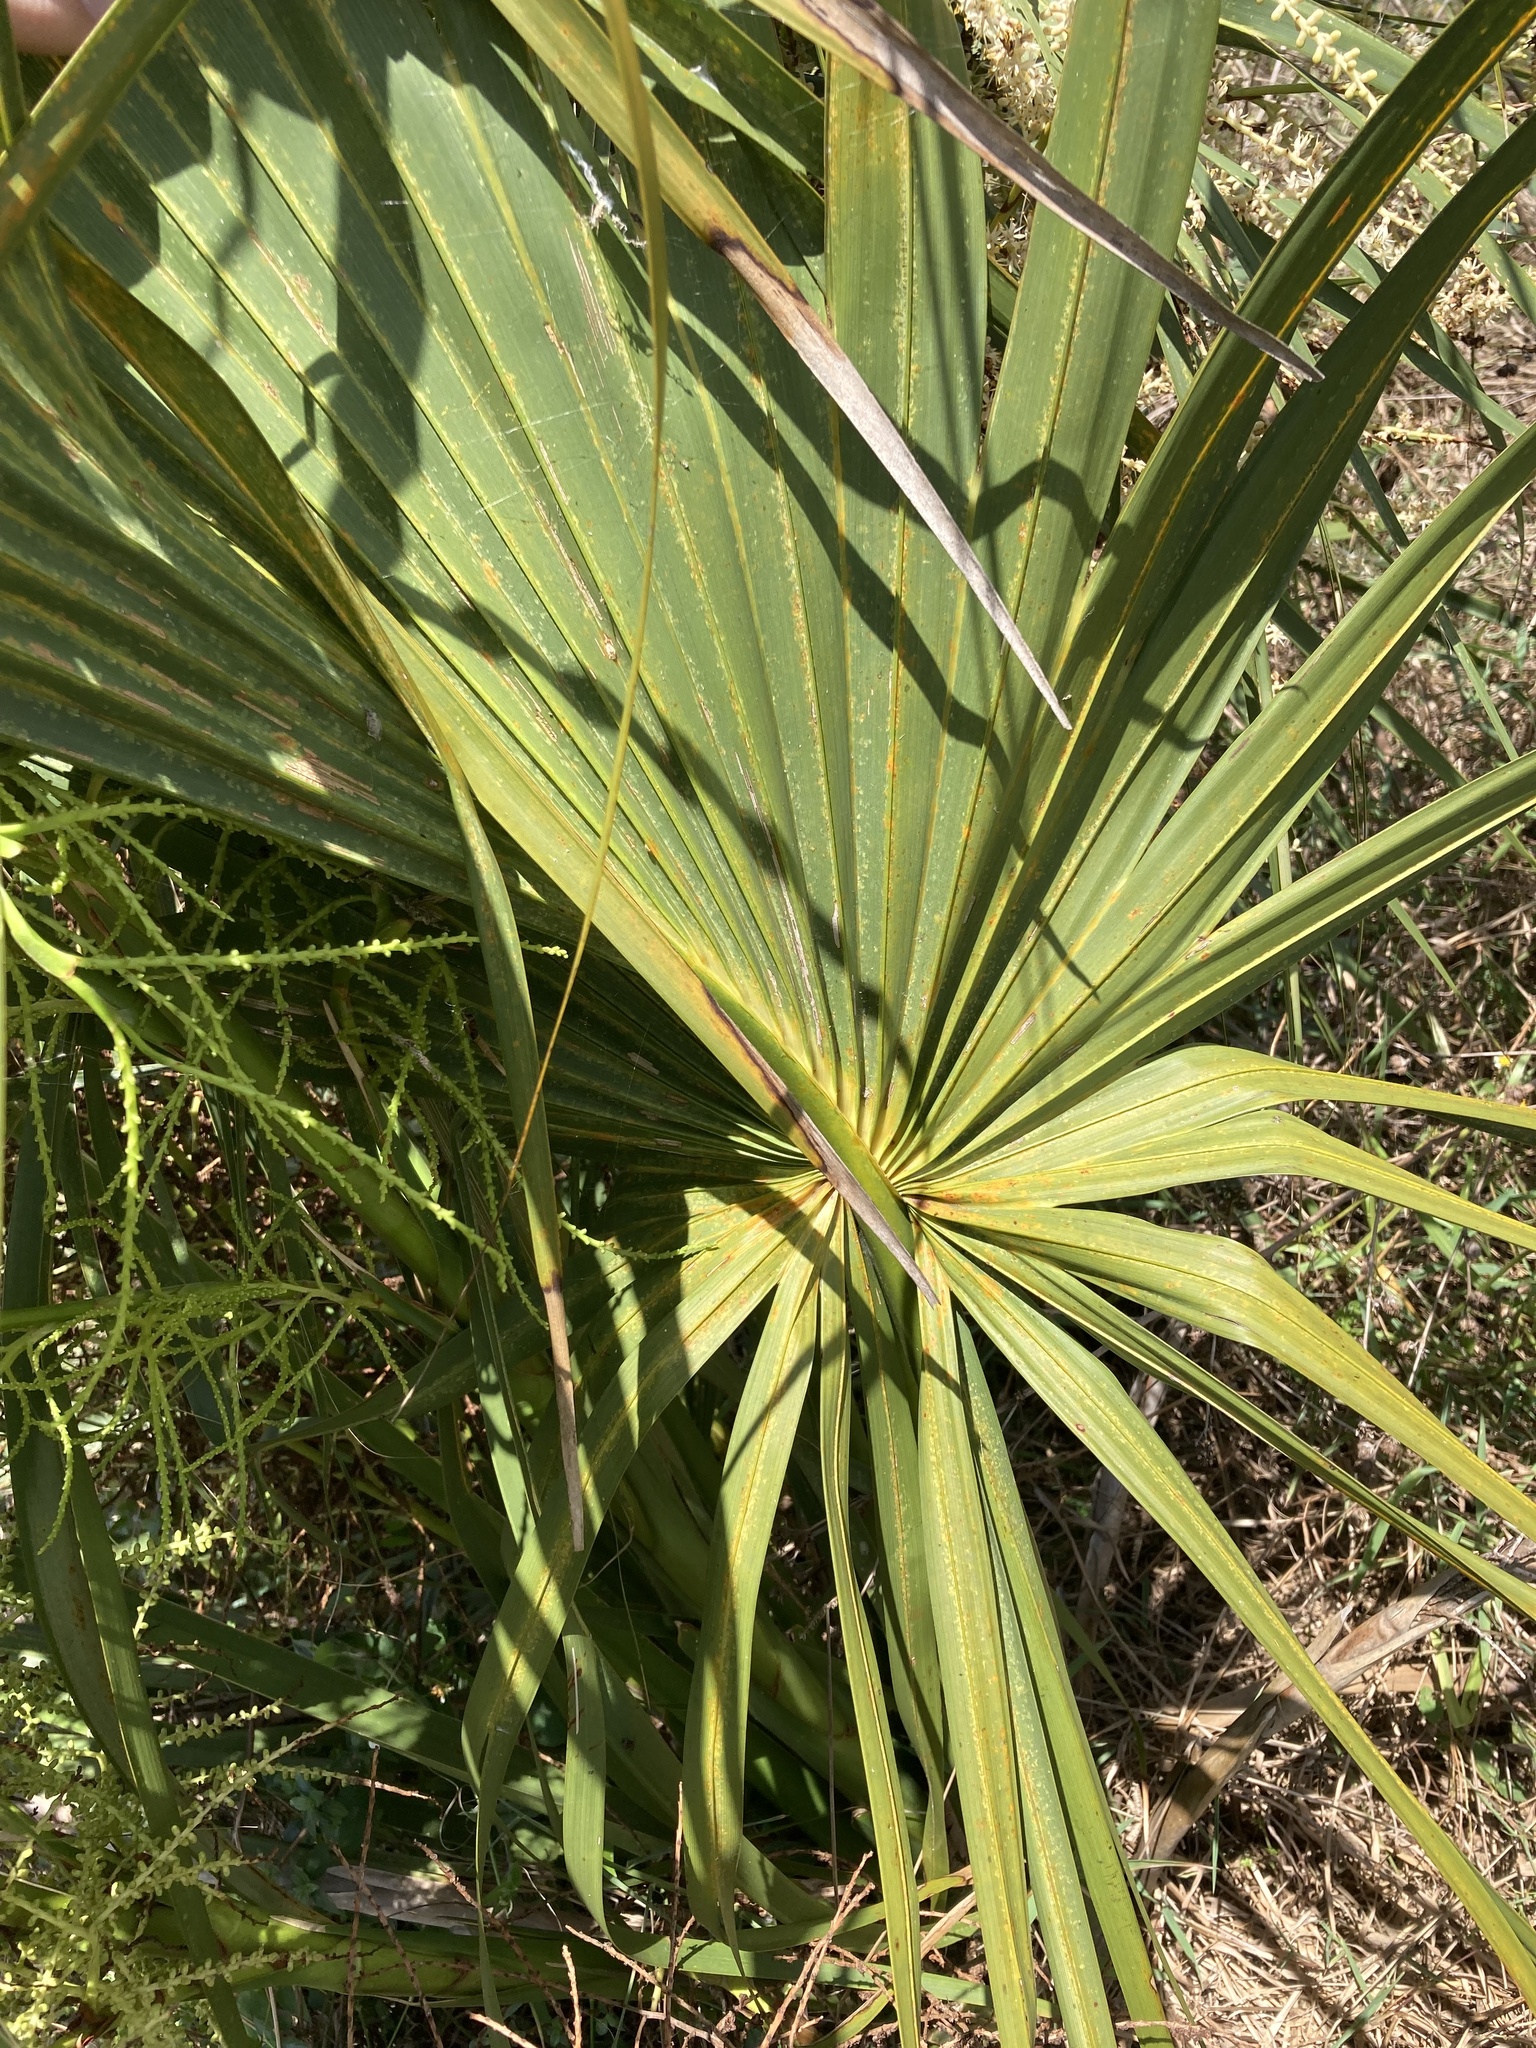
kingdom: Plantae
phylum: Tracheophyta
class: Liliopsida
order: Arecales
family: Arecaceae
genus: Sabal
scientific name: Sabal palmetto
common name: Blue palmetto
